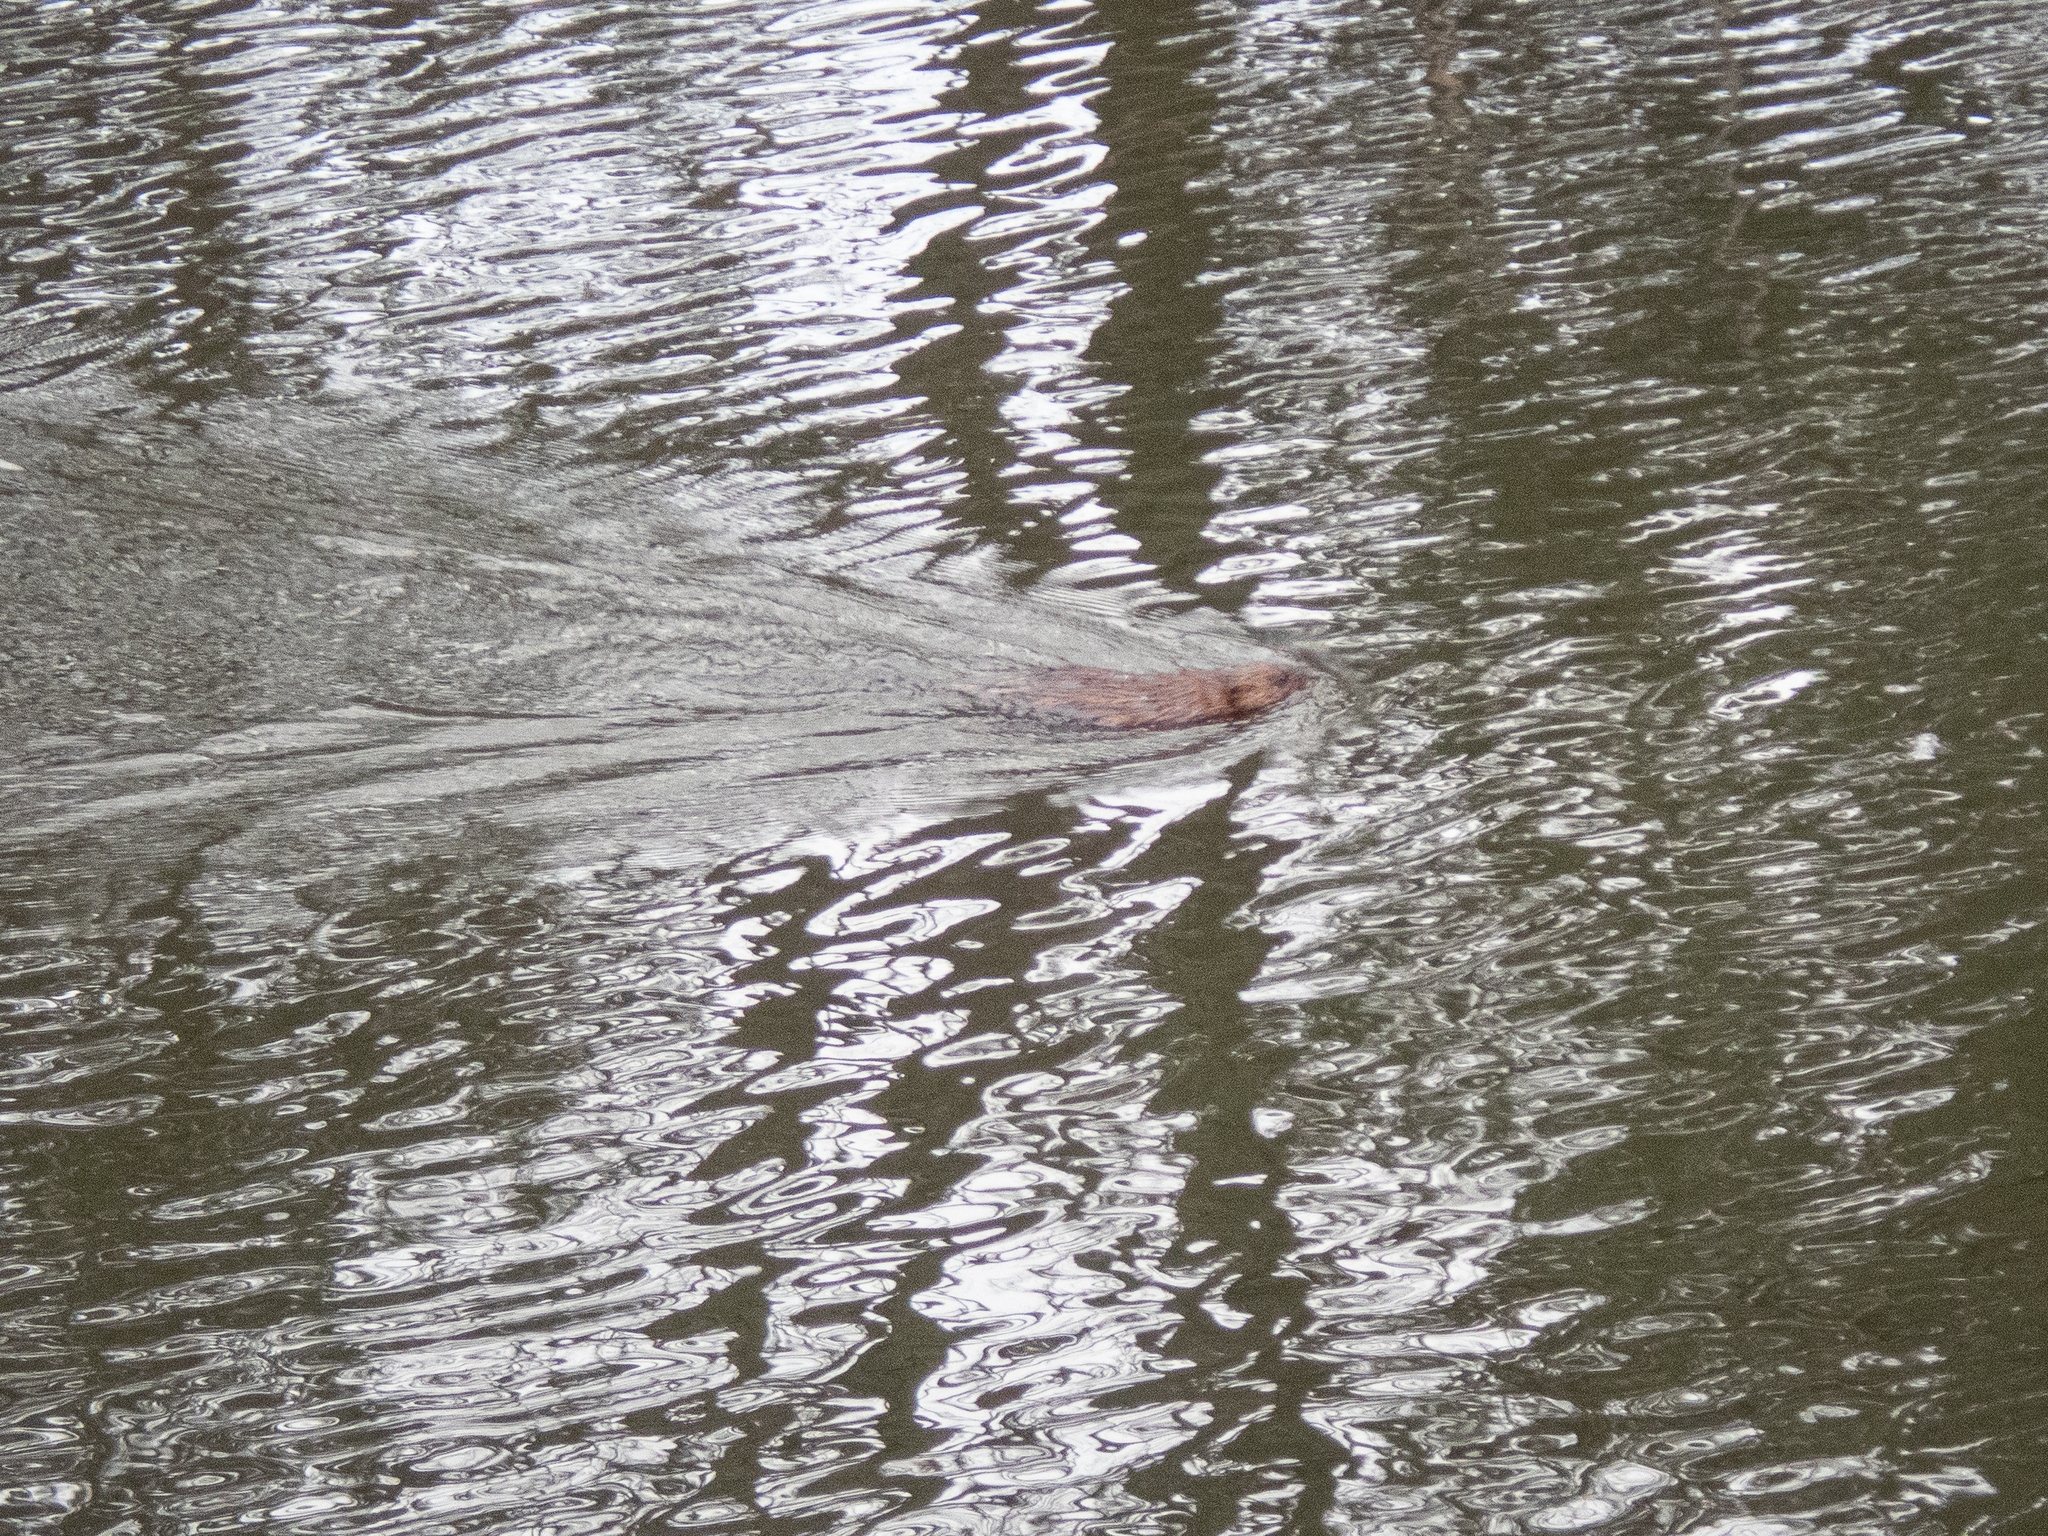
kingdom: Animalia
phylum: Chordata
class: Mammalia
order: Rodentia
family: Cricetidae
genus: Ondatra
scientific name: Ondatra zibethicus
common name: Muskrat
